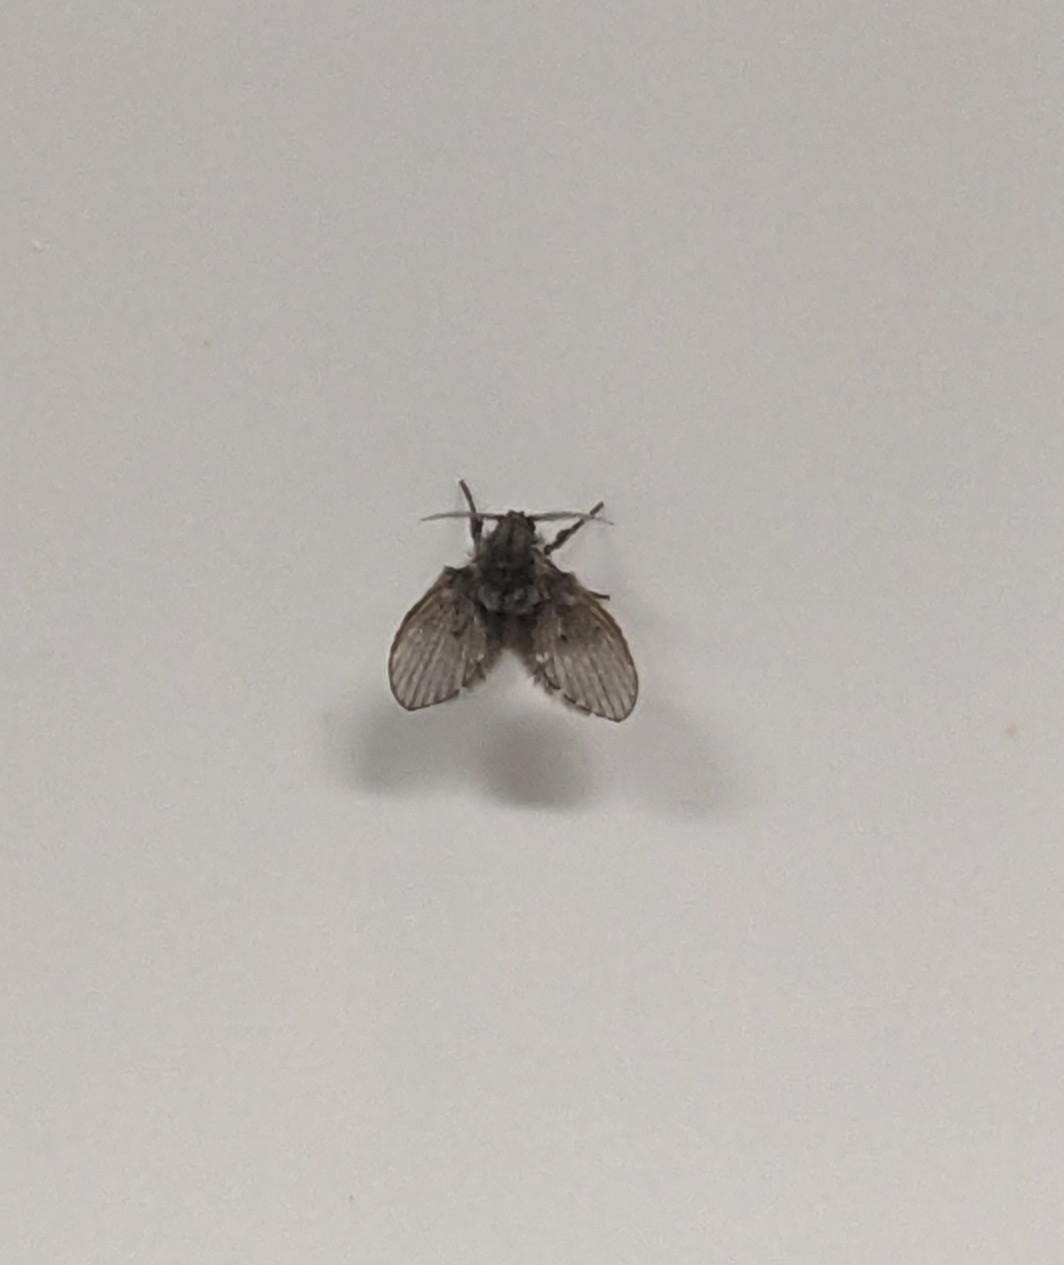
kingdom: Animalia
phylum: Arthropoda
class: Insecta
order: Diptera
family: Psychodidae
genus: Clogmia
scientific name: Clogmia albipunctatus
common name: White-spotted moth fly
